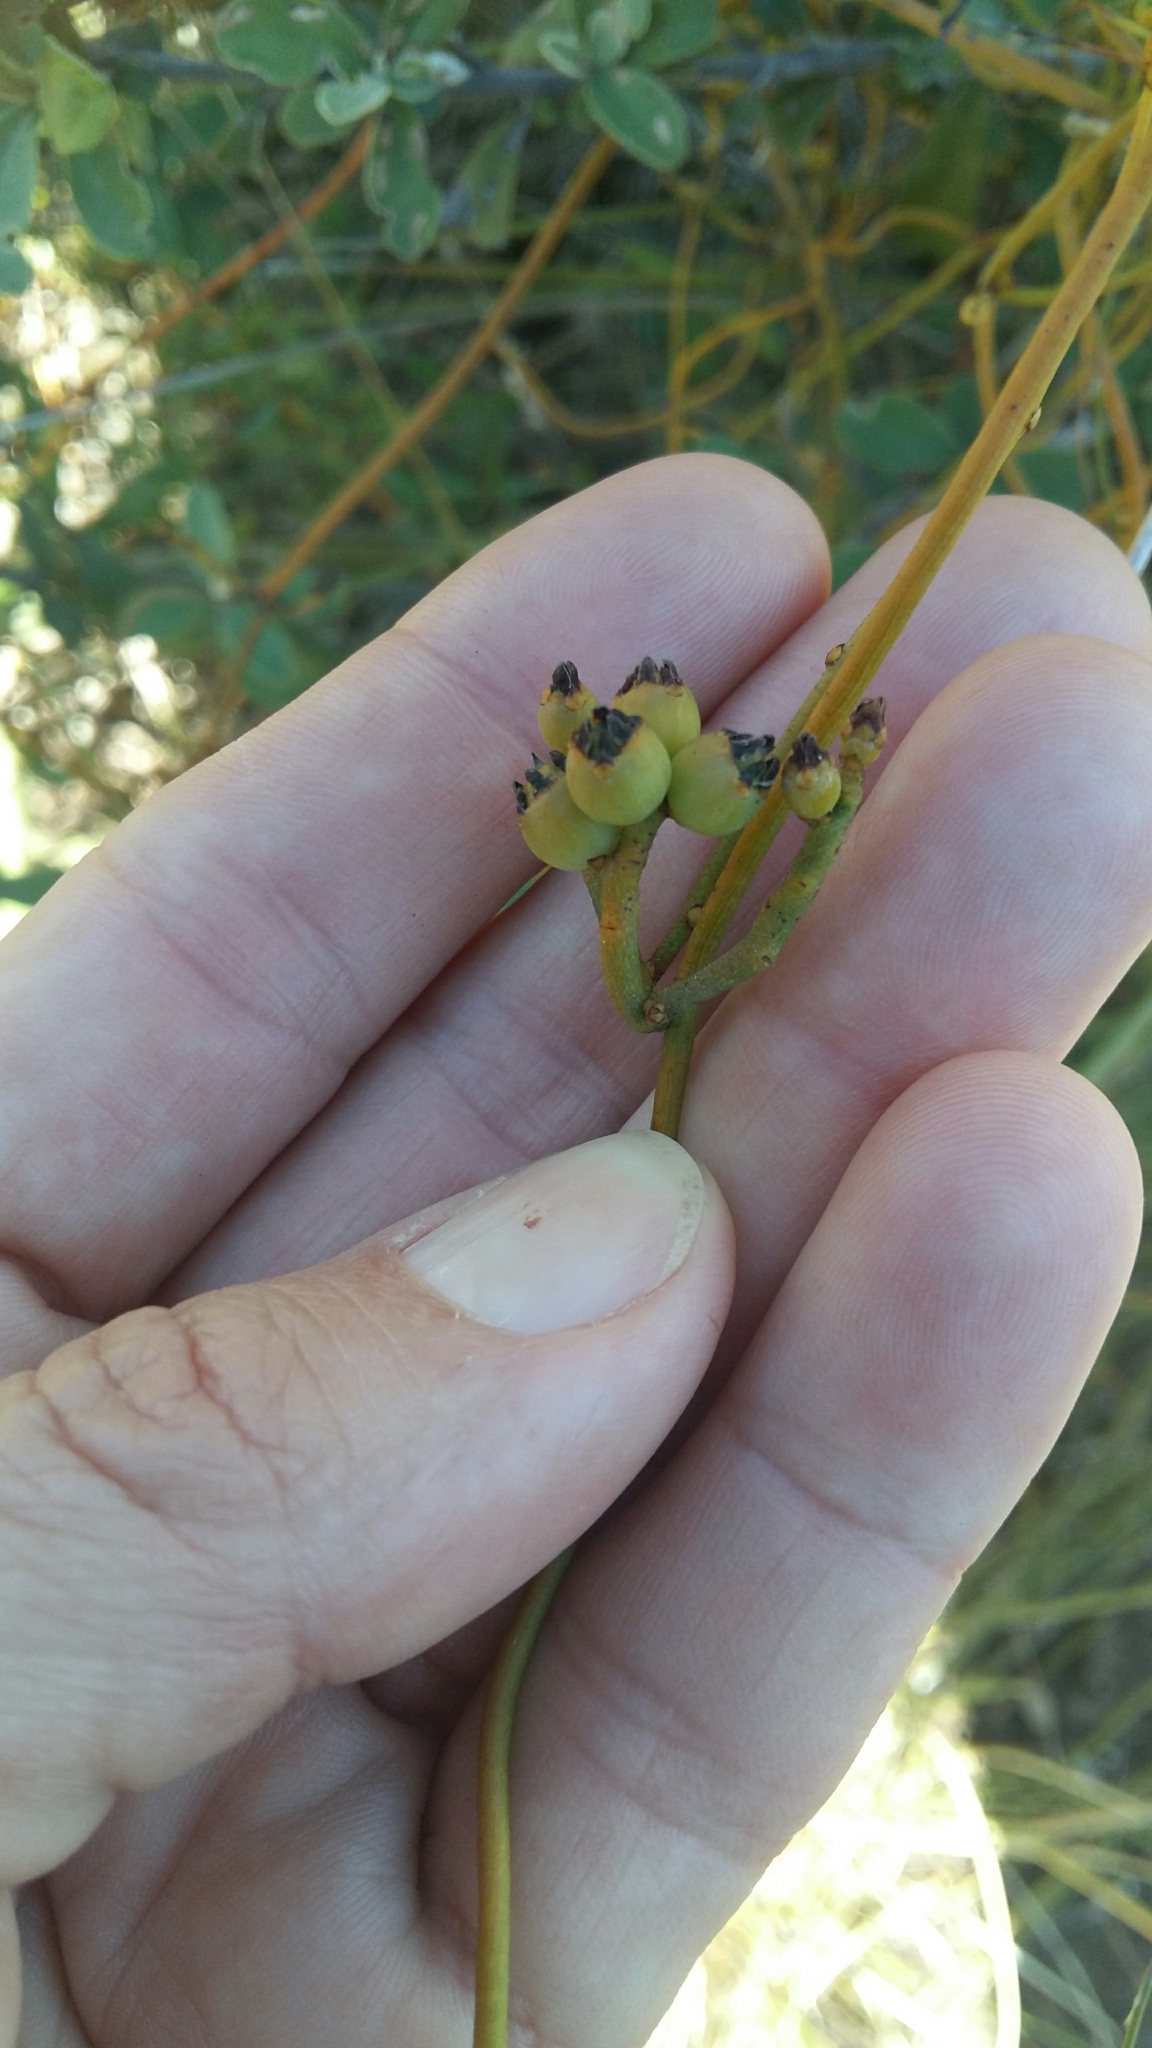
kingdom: Plantae
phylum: Tracheophyta
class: Magnoliopsida
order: Laurales
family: Lauraceae
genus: Cassytha
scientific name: Cassytha ciliolata
